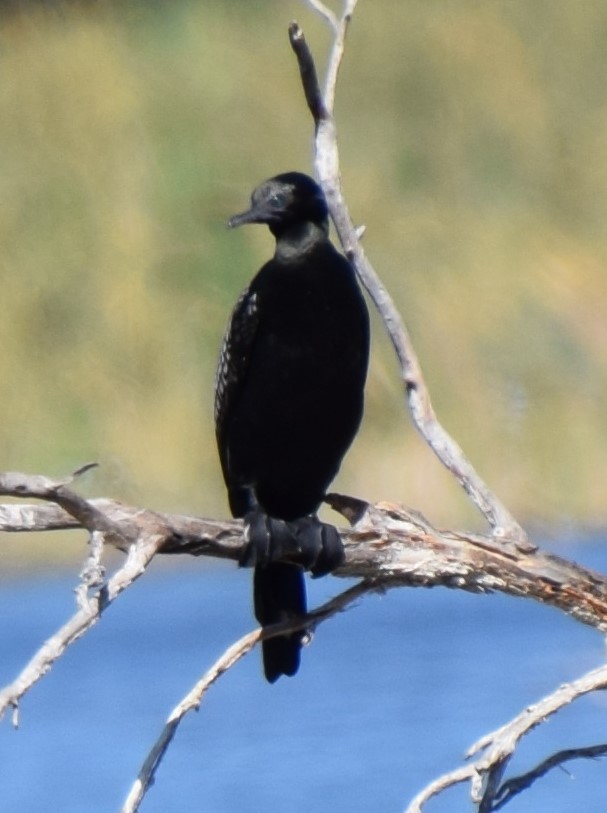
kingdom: Animalia
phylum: Chordata
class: Aves
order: Suliformes
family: Phalacrocoracidae
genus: Phalacrocorax
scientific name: Phalacrocorax sulcirostris
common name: Little black cormorant
